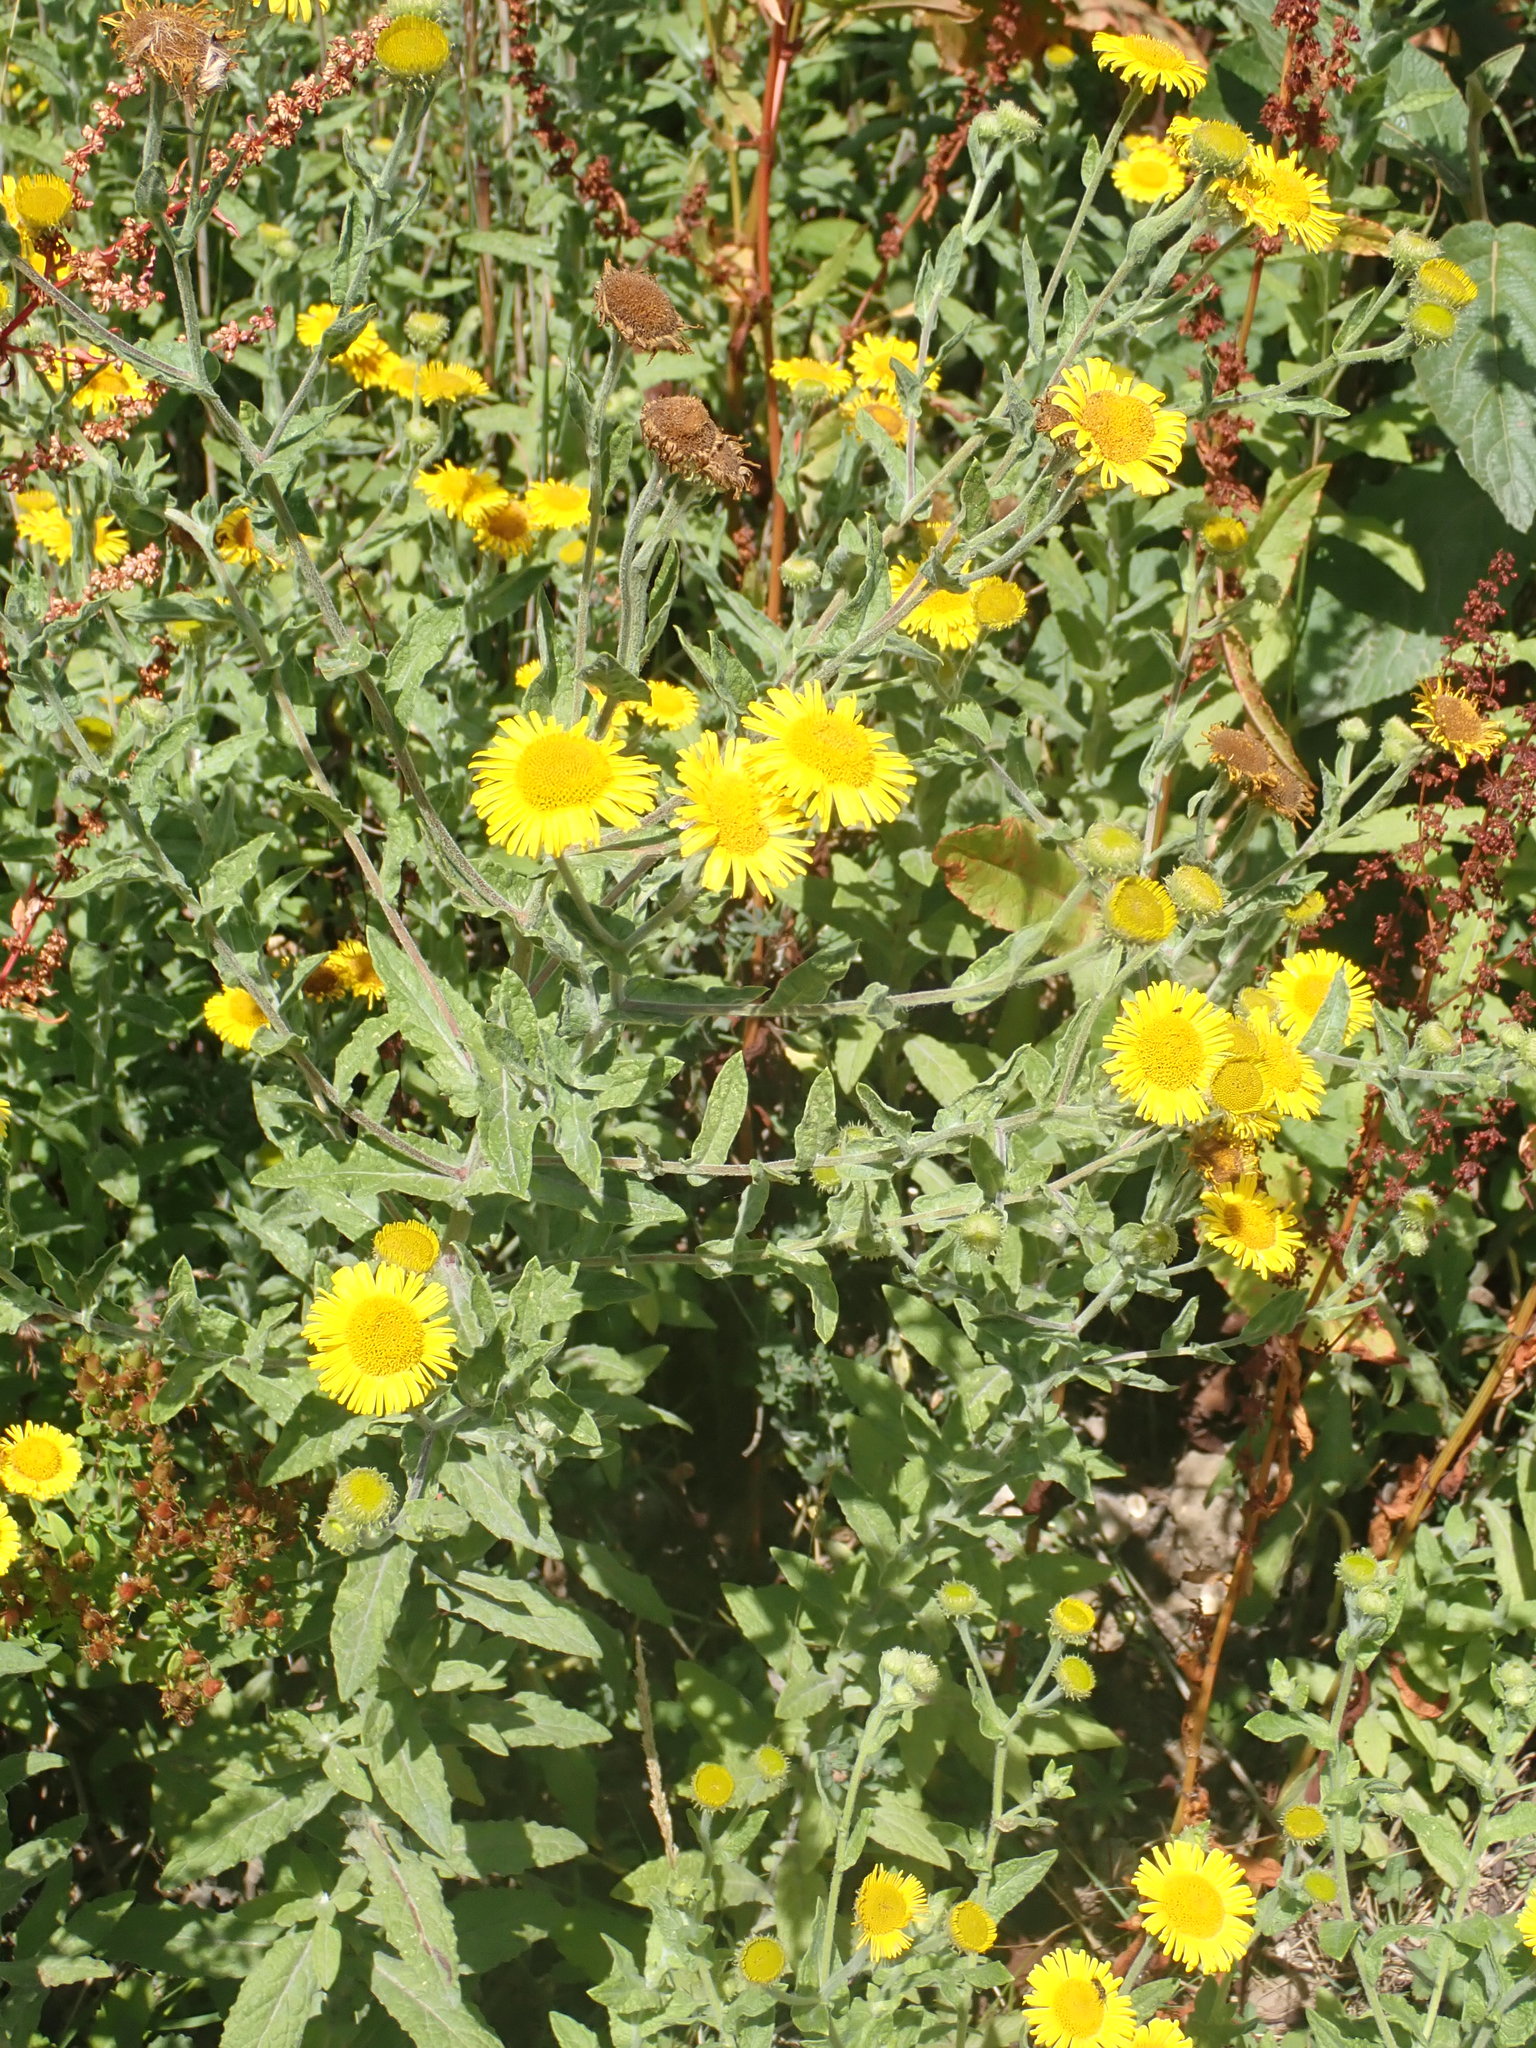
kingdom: Plantae
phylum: Tracheophyta
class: Magnoliopsida
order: Asterales
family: Asteraceae
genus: Pulicaria
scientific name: Pulicaria dysenterica
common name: Common fleabane
